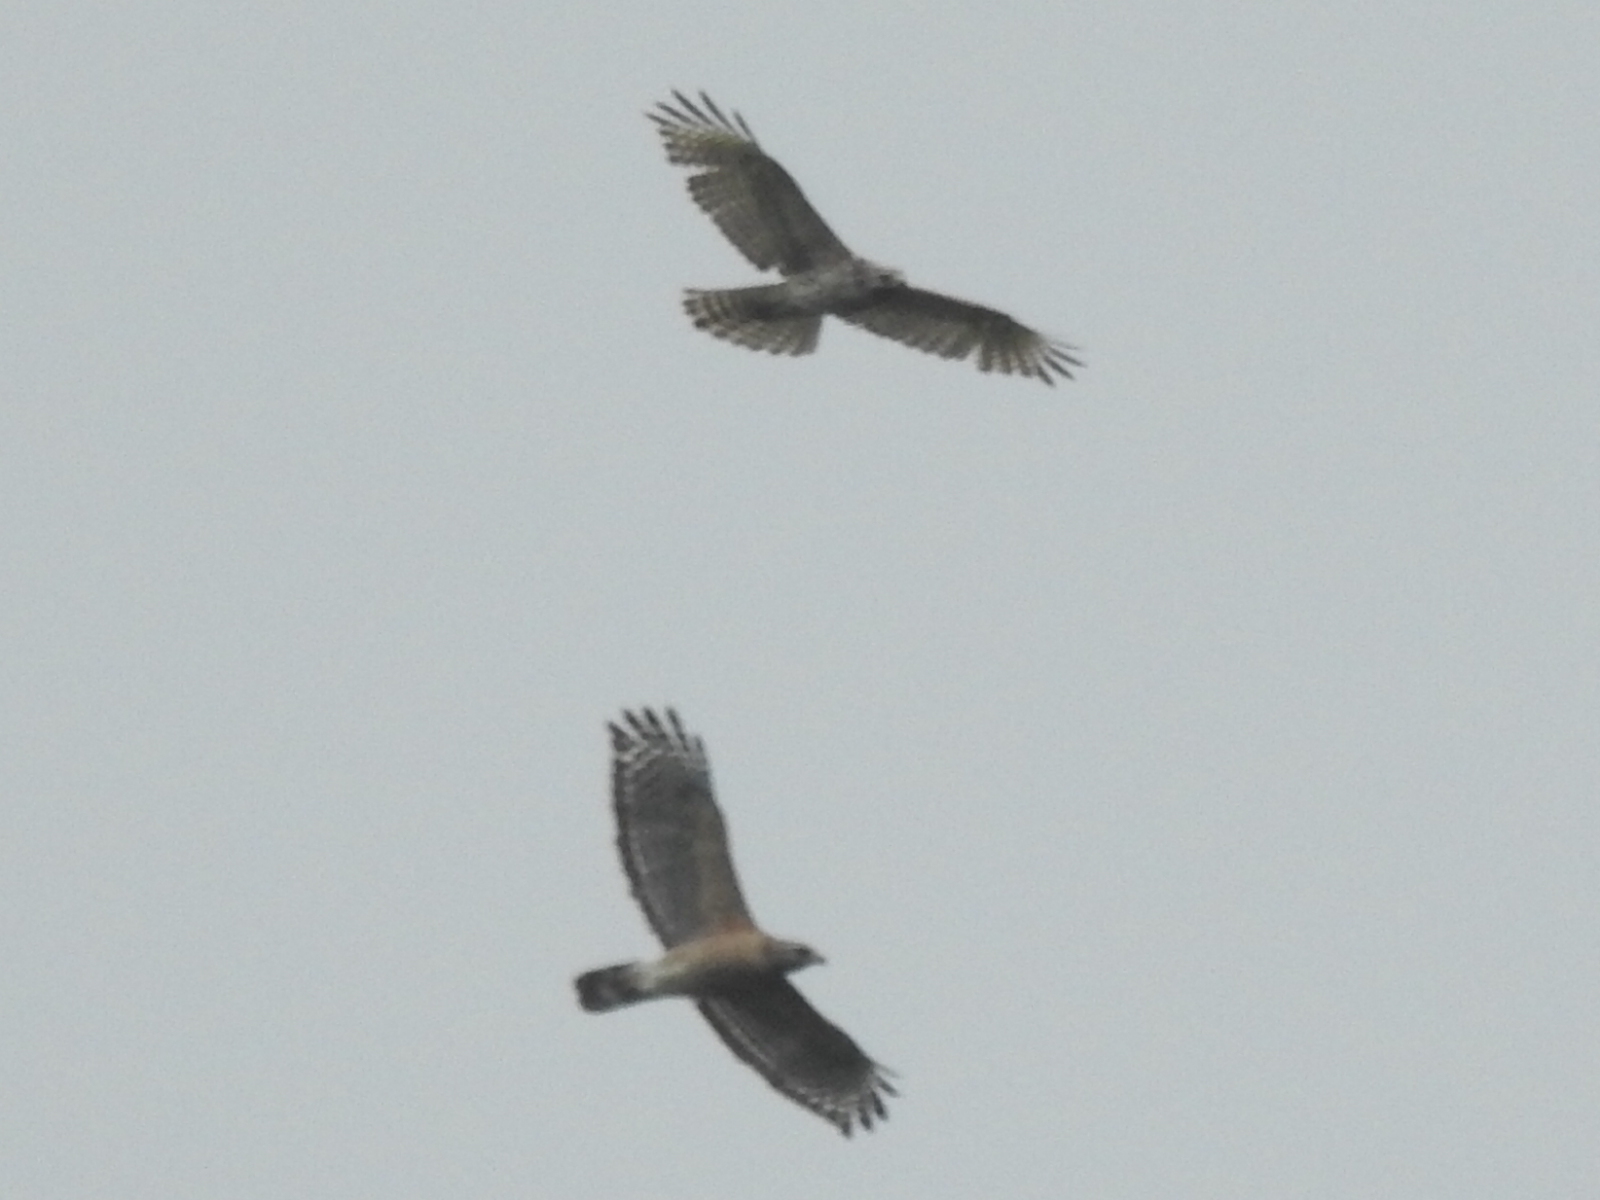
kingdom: Animalia
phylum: Chordata
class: Aves
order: Accipitriformes
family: Accipitridae
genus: Buteo
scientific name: Buteo lineatus
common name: Red-shouldered hawk
